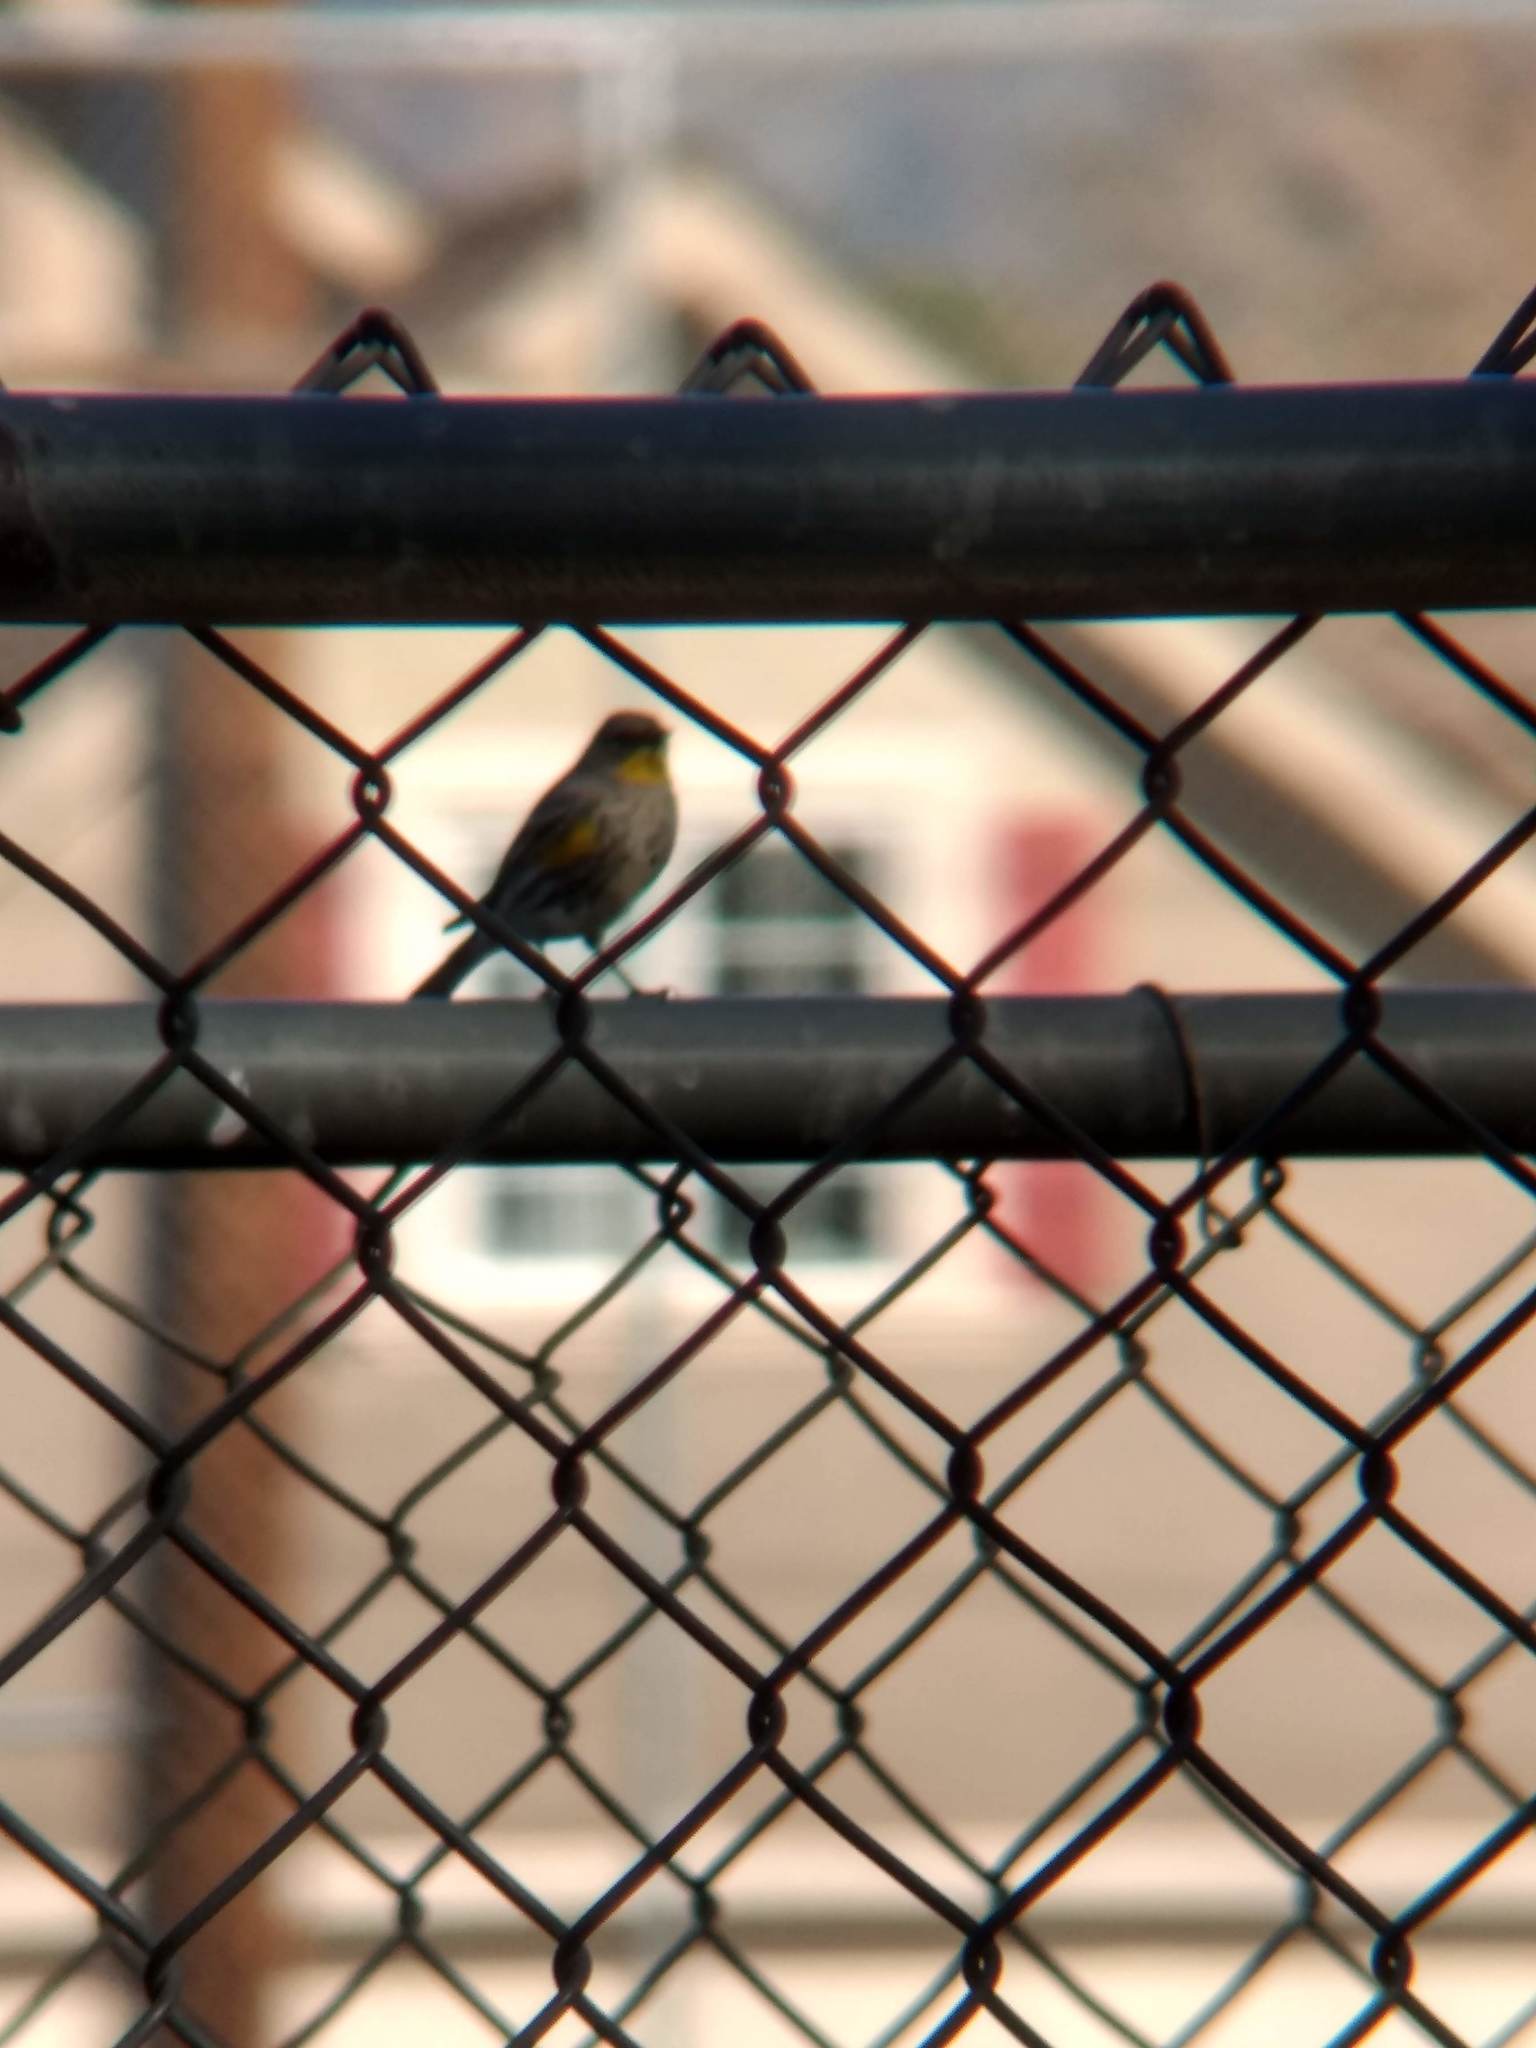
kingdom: Animalia
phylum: Chordata
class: Aves
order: Passeriformes
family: Parulidae
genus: Setophaga
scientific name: Setophaga coronata
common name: Myrtle warbler
